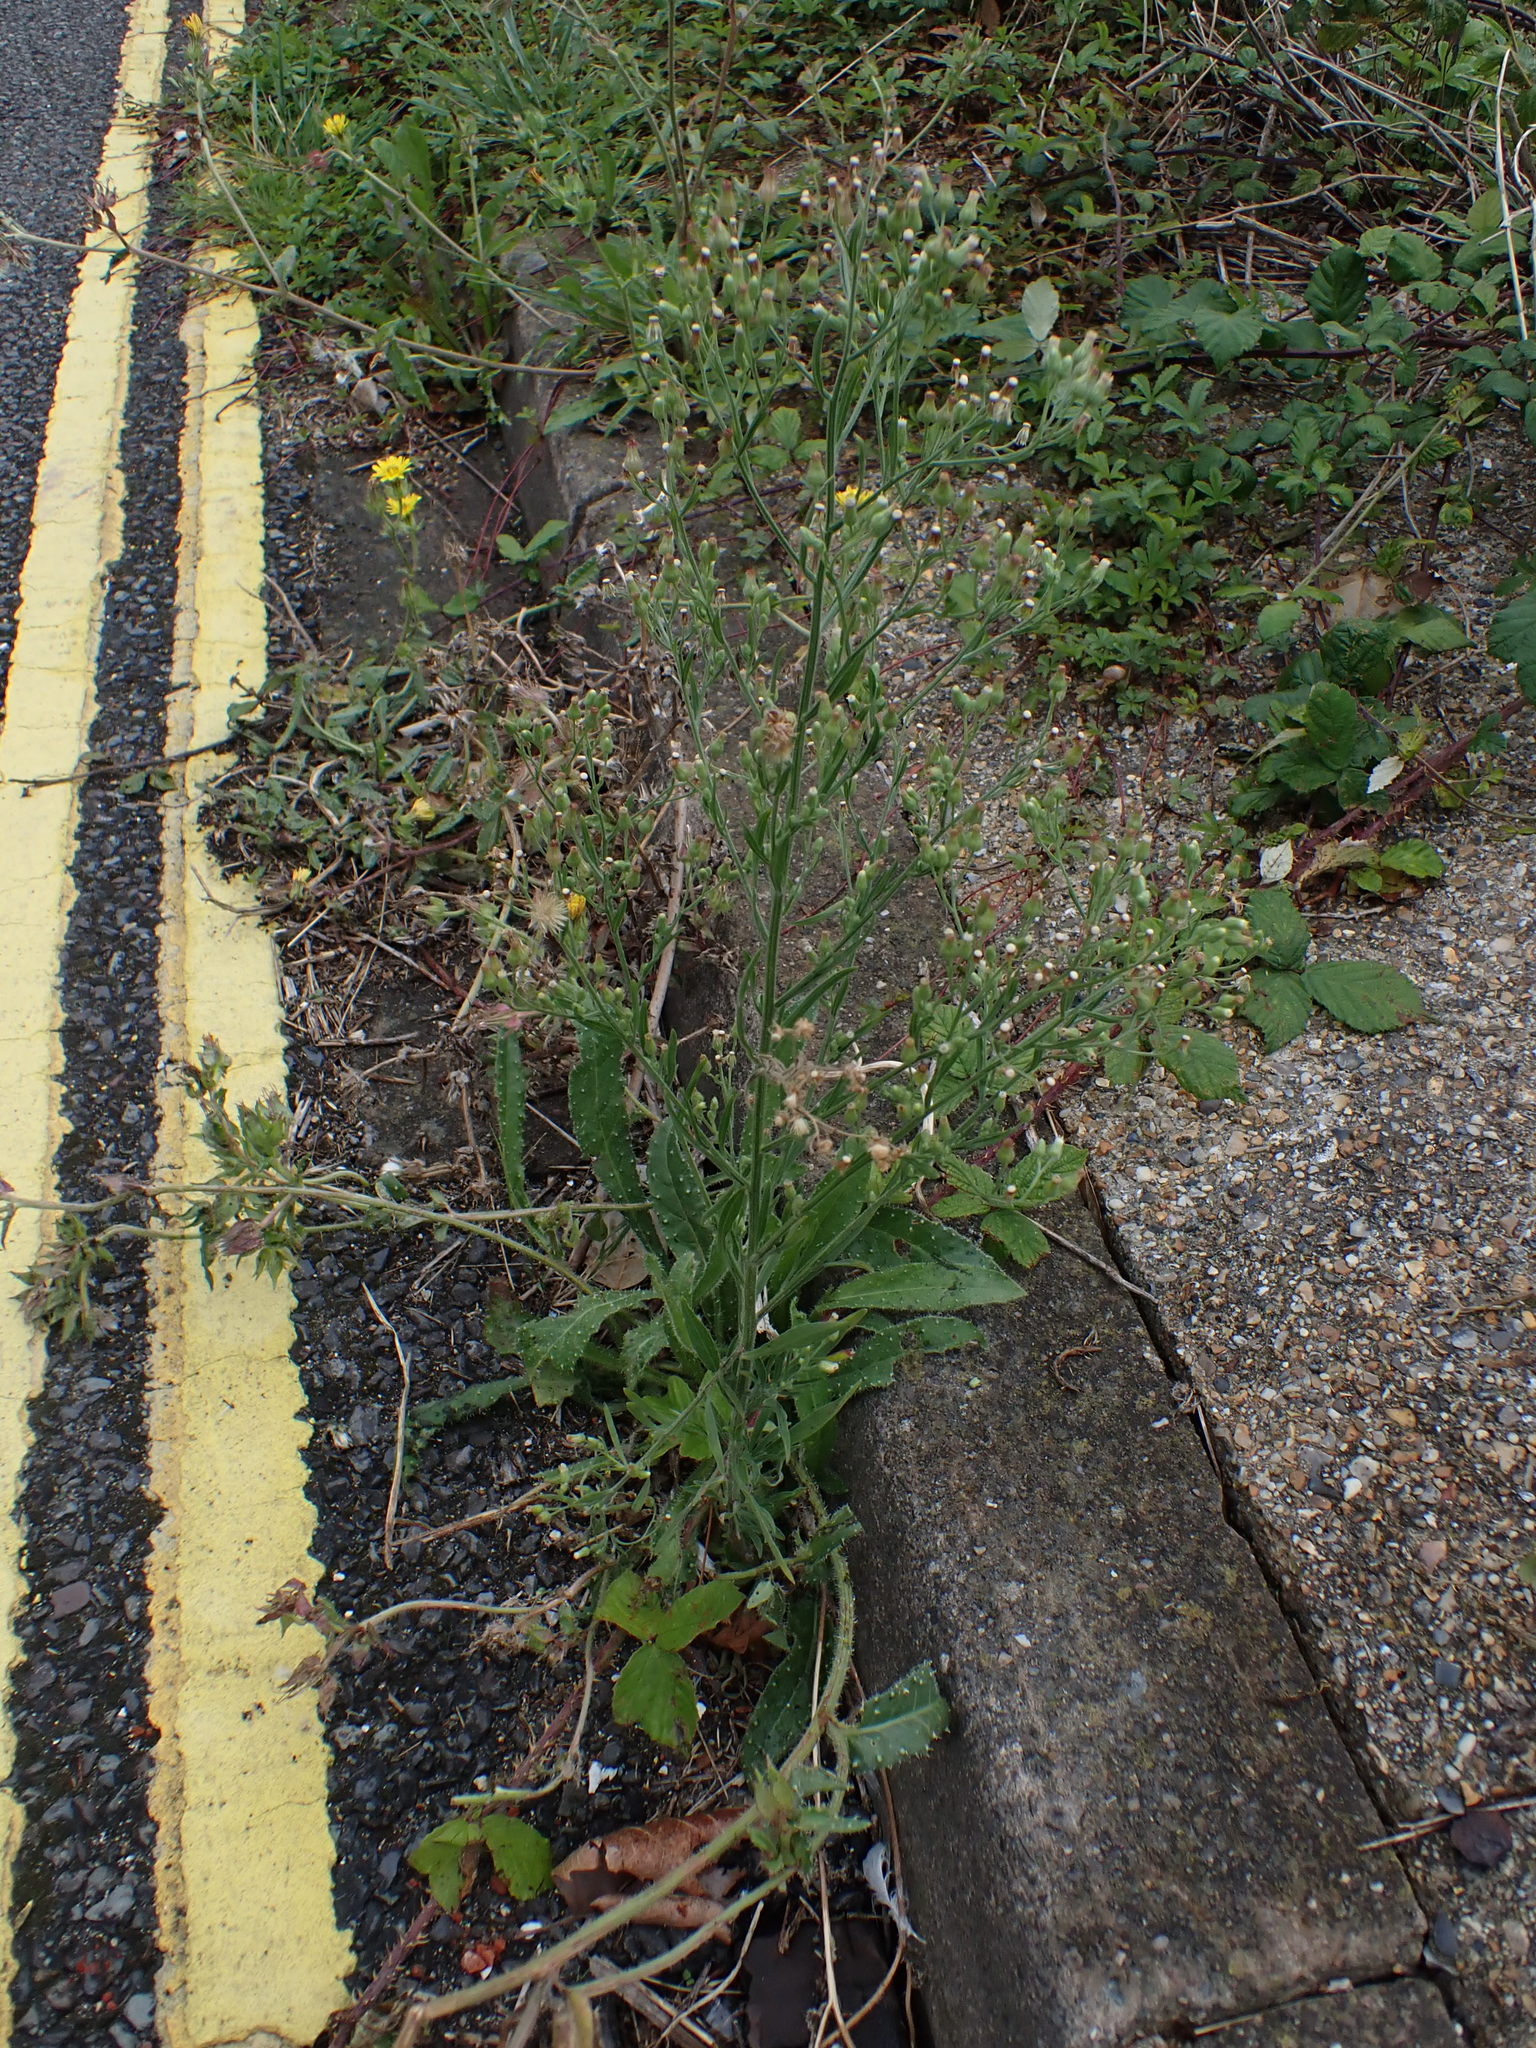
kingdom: Plantae
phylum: Tracheophyta
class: Magnoliopsida
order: Asterales
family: Asteraceae
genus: Erigeron
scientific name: Erigeron sumatrensis
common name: Daisy
